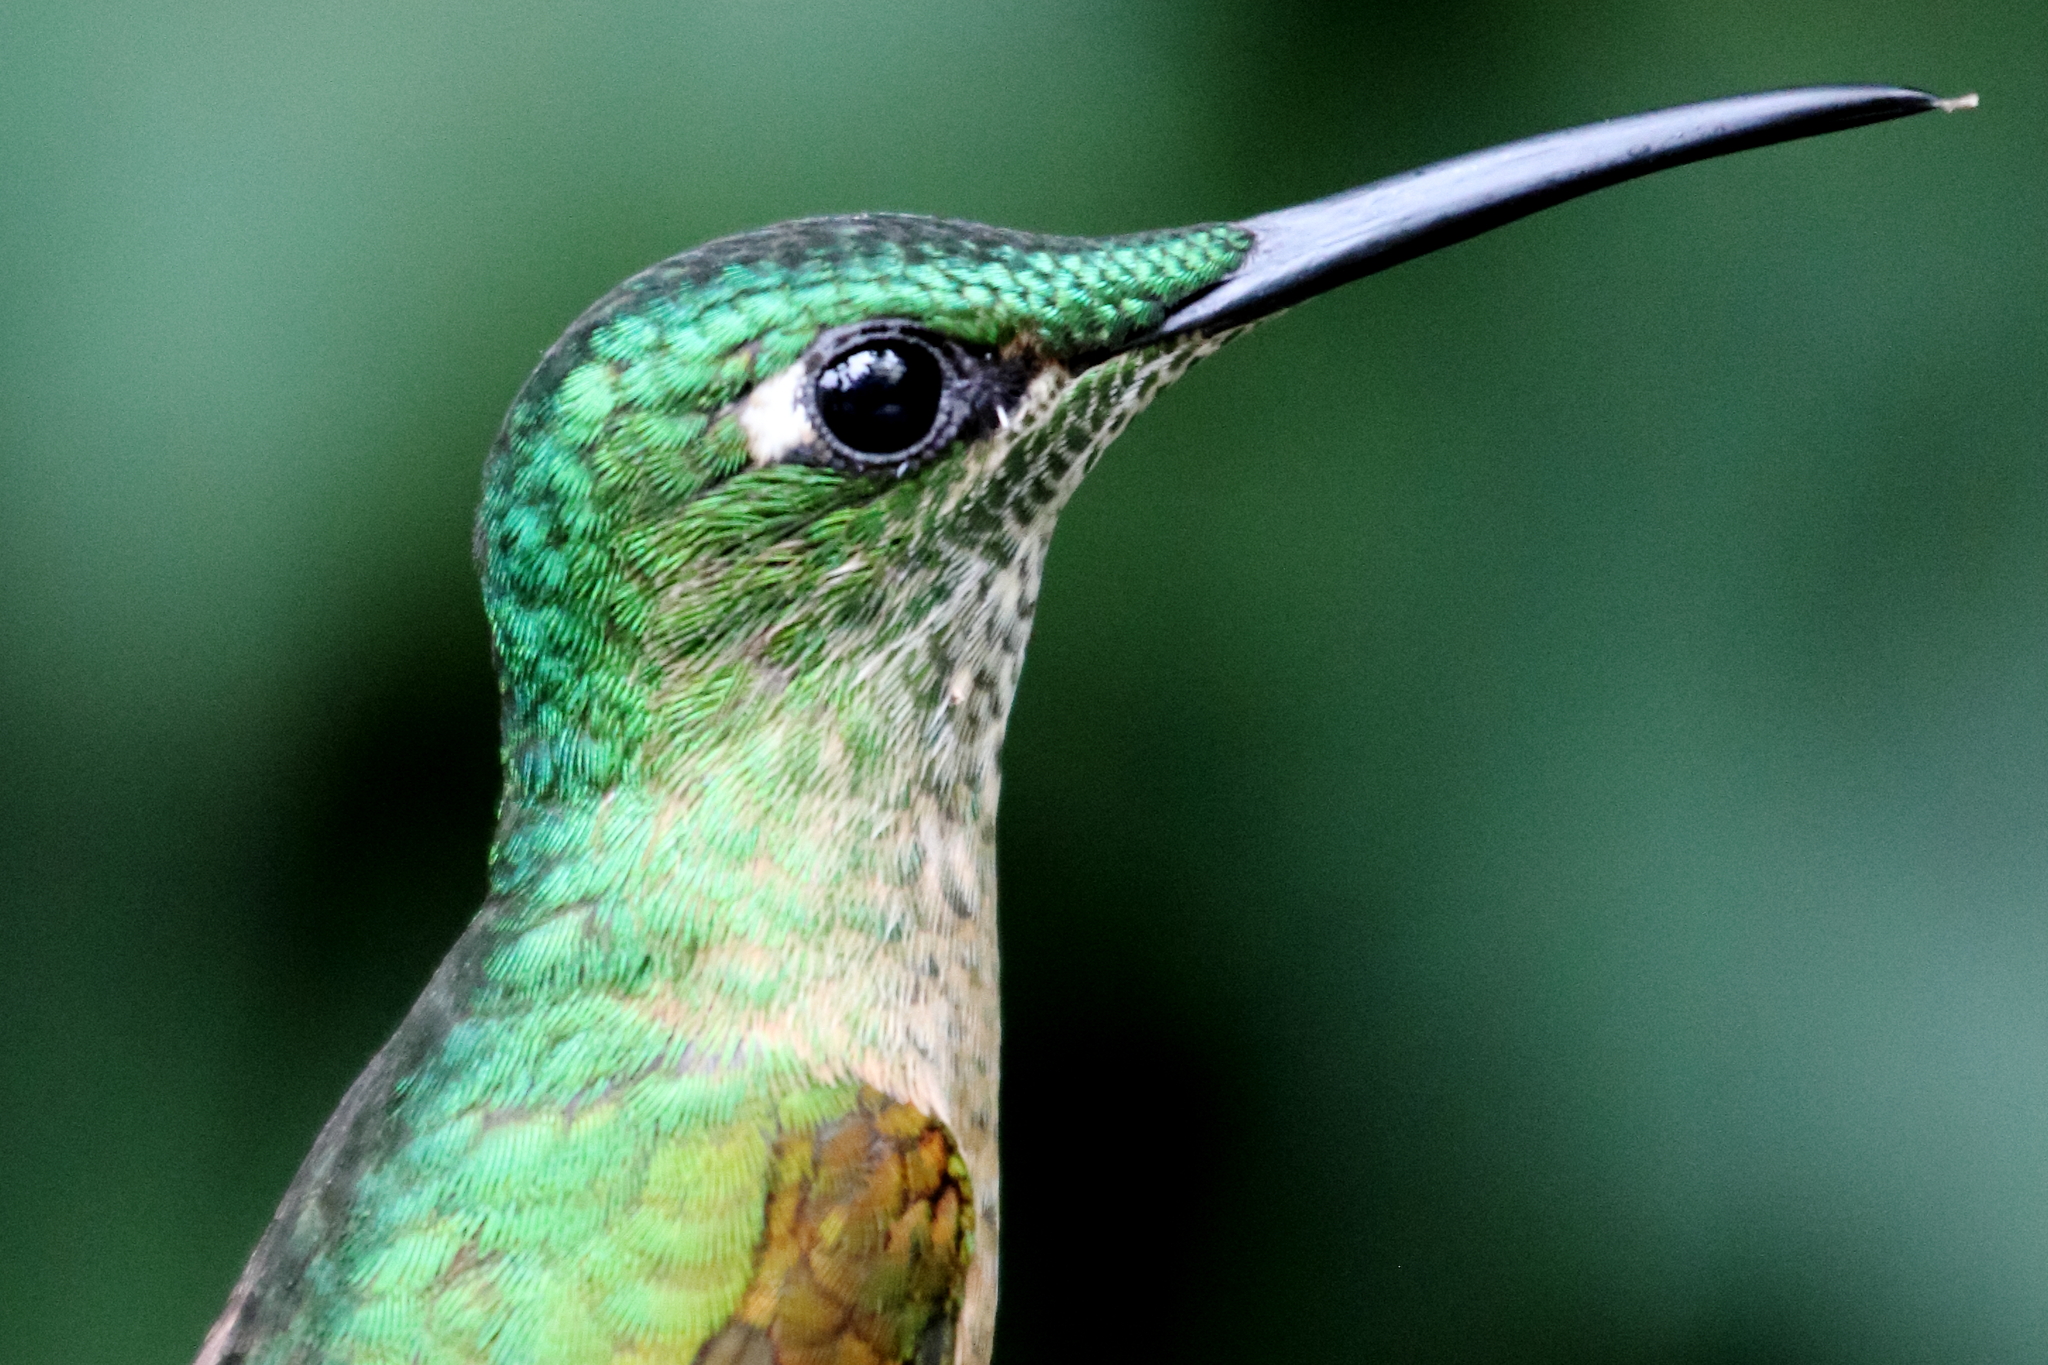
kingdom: Animalia
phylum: Chordata
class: Aves
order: Apodiformes
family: Trochilidae
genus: Heliodoxa
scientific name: Heliodoxa rubinoides
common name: Fawn-breasted brilliant
